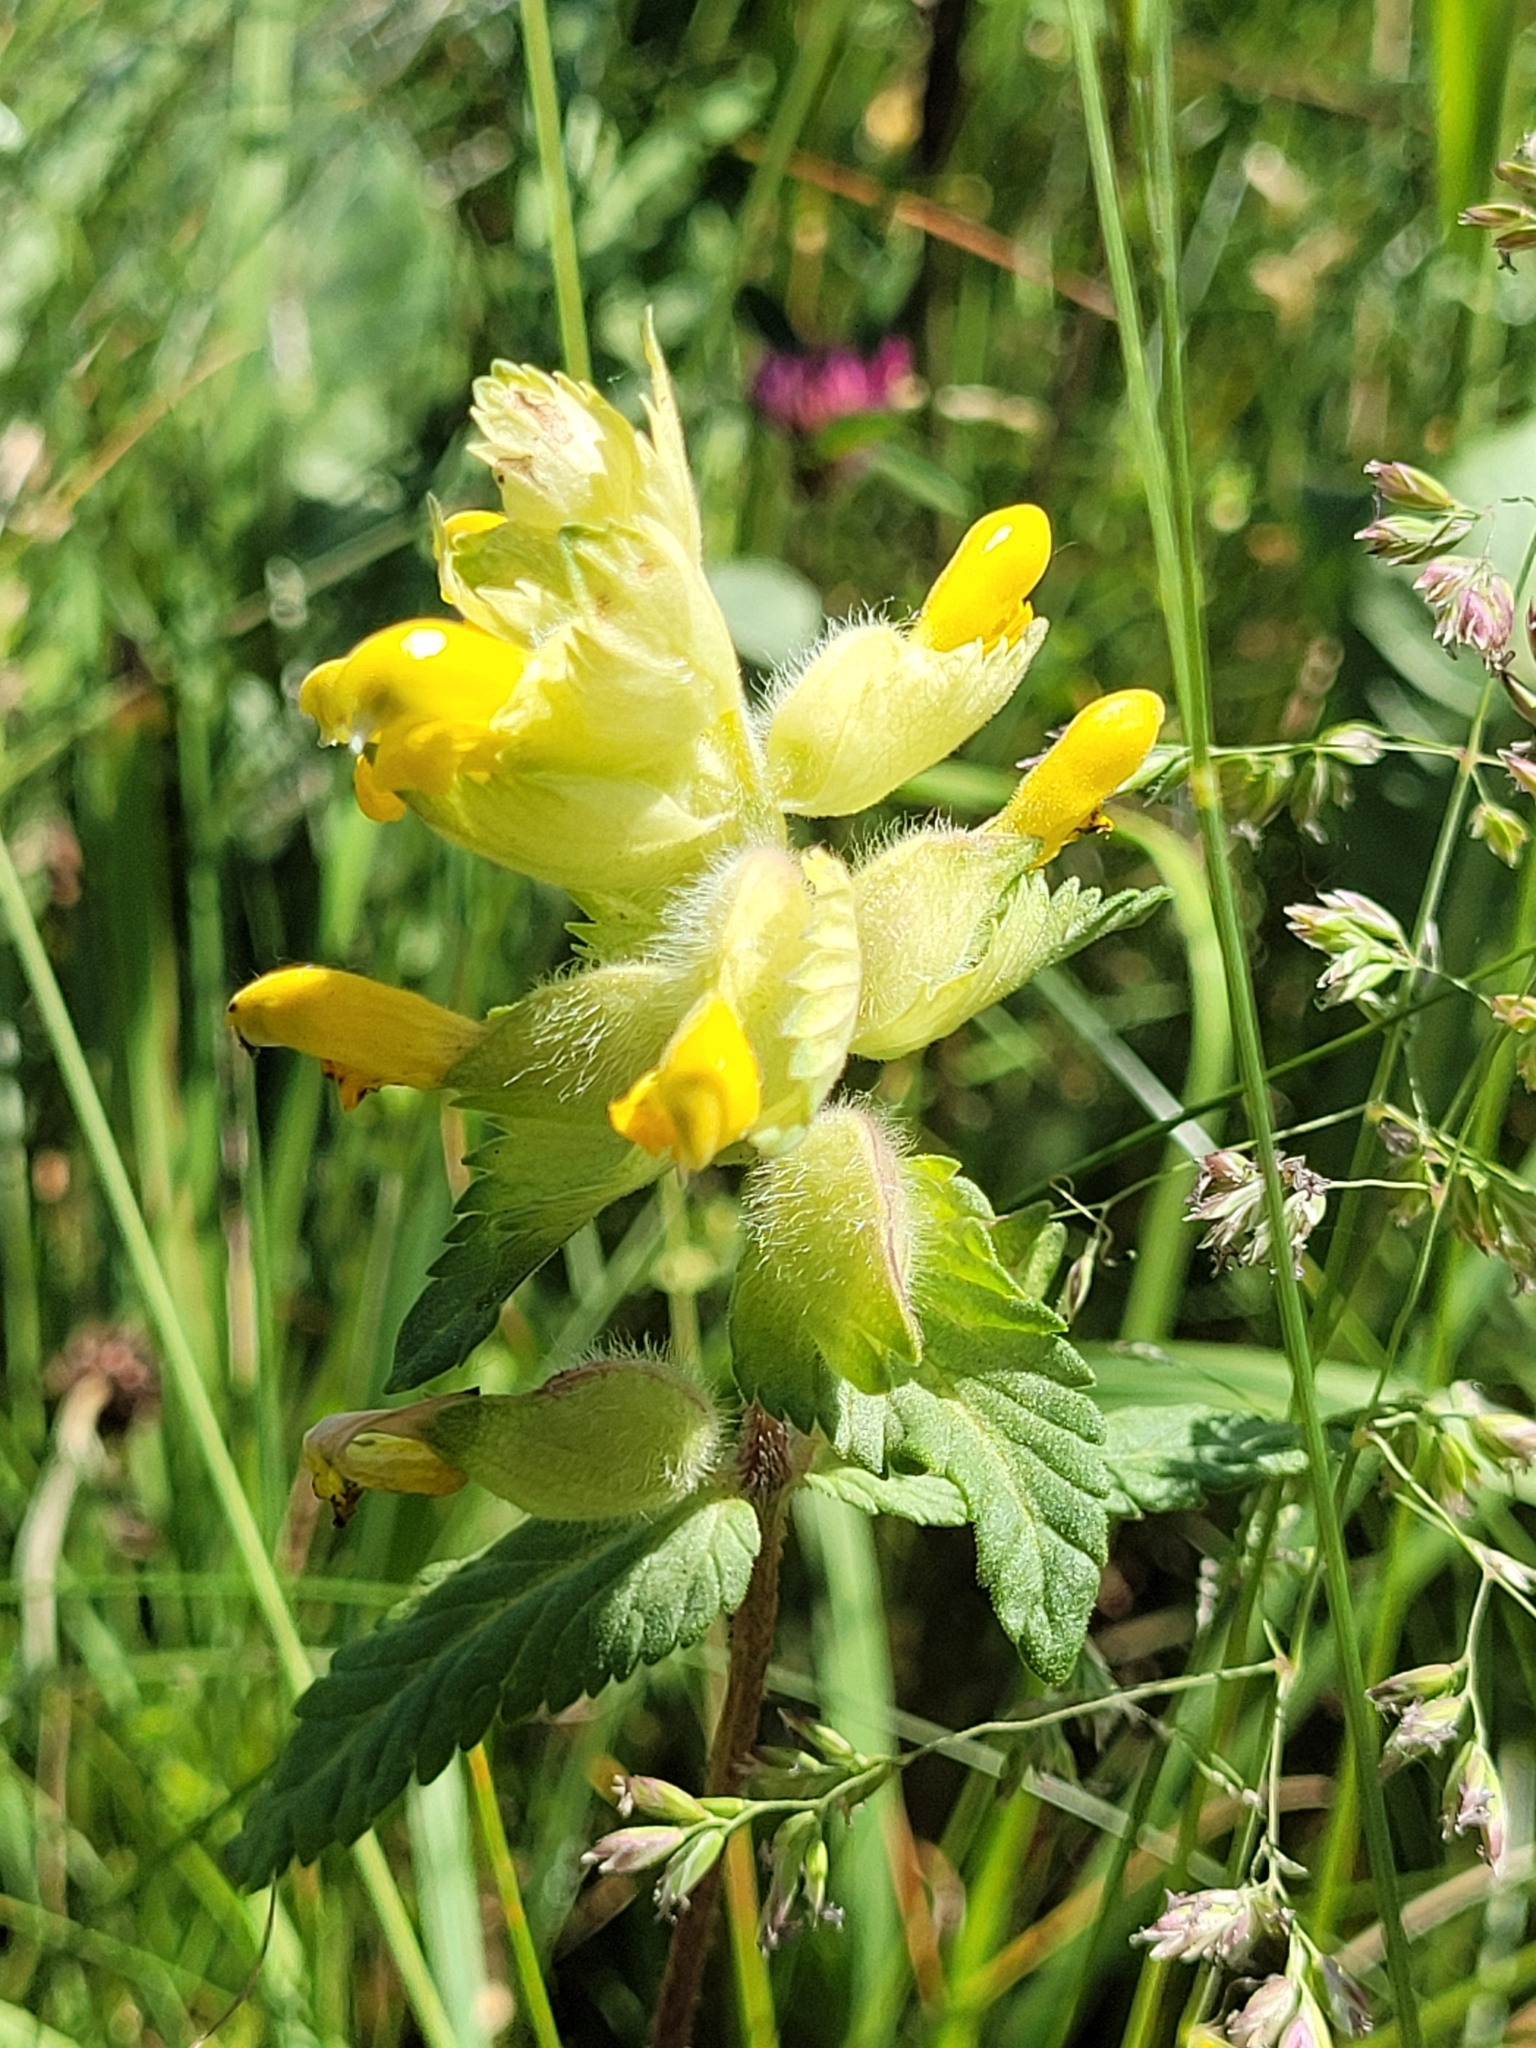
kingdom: Plantae
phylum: Tracheophyta
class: Magnoliopsida
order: Lamiales
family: Orobanchaceae
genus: Rhinanthus
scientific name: Rhinanthus alectorolophus
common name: Greater yellow-rattle
